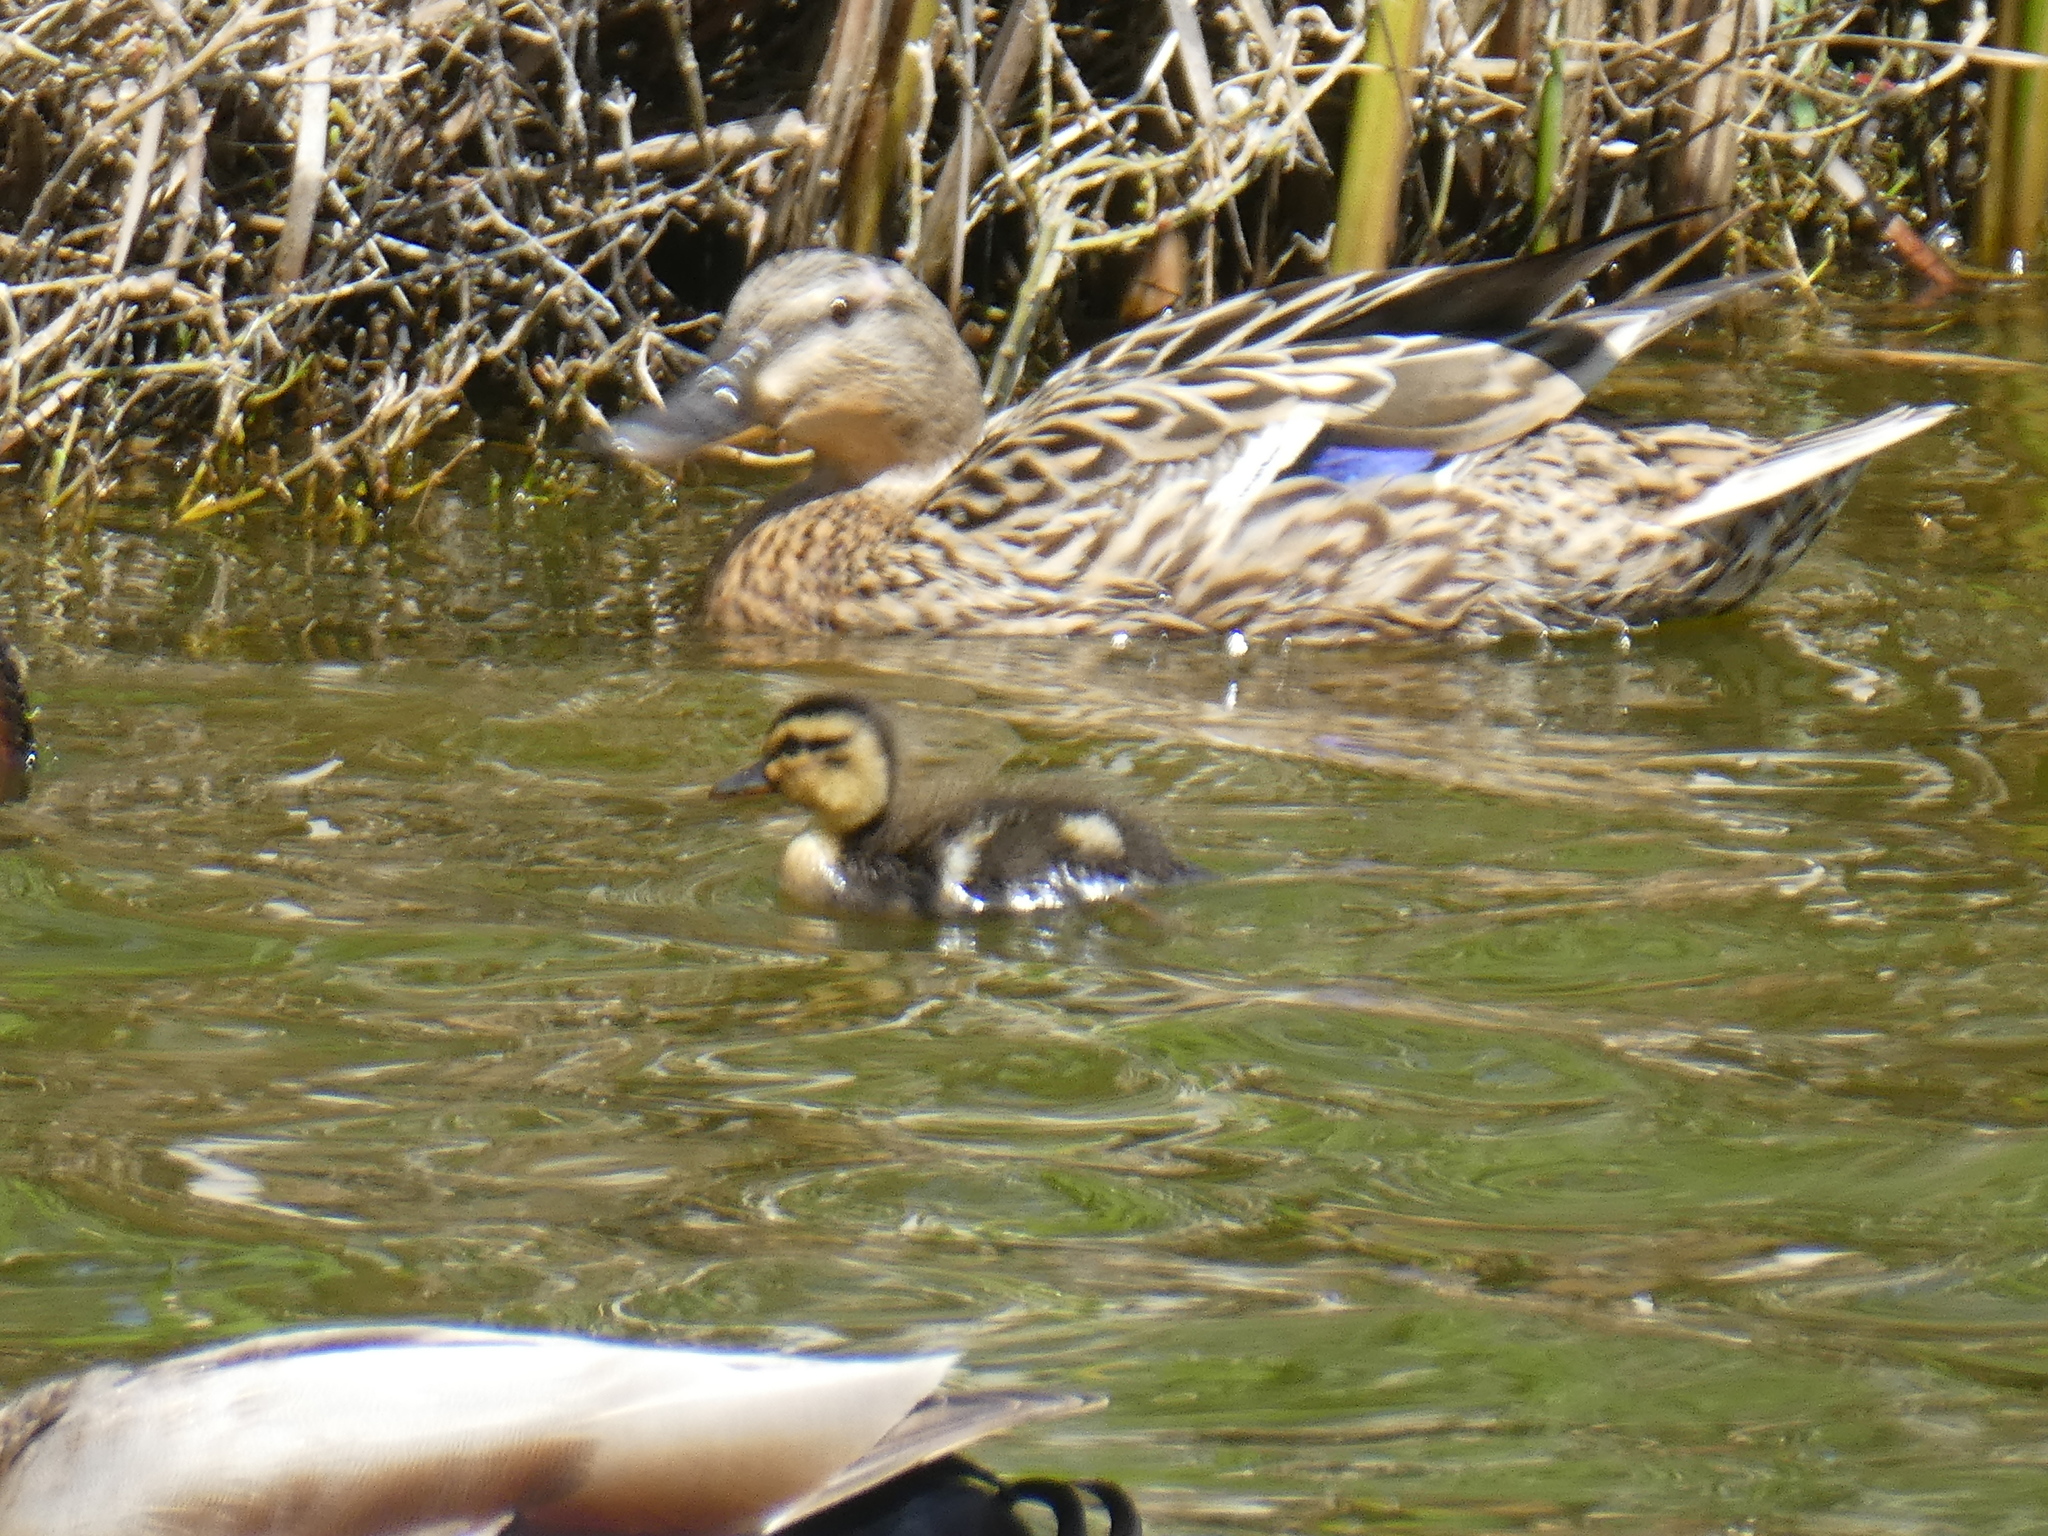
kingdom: Animalia
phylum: Chordata
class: Aves
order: Anseriformes
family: Anatidae
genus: Anas
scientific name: Anas platyrhynchos
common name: Mallard
